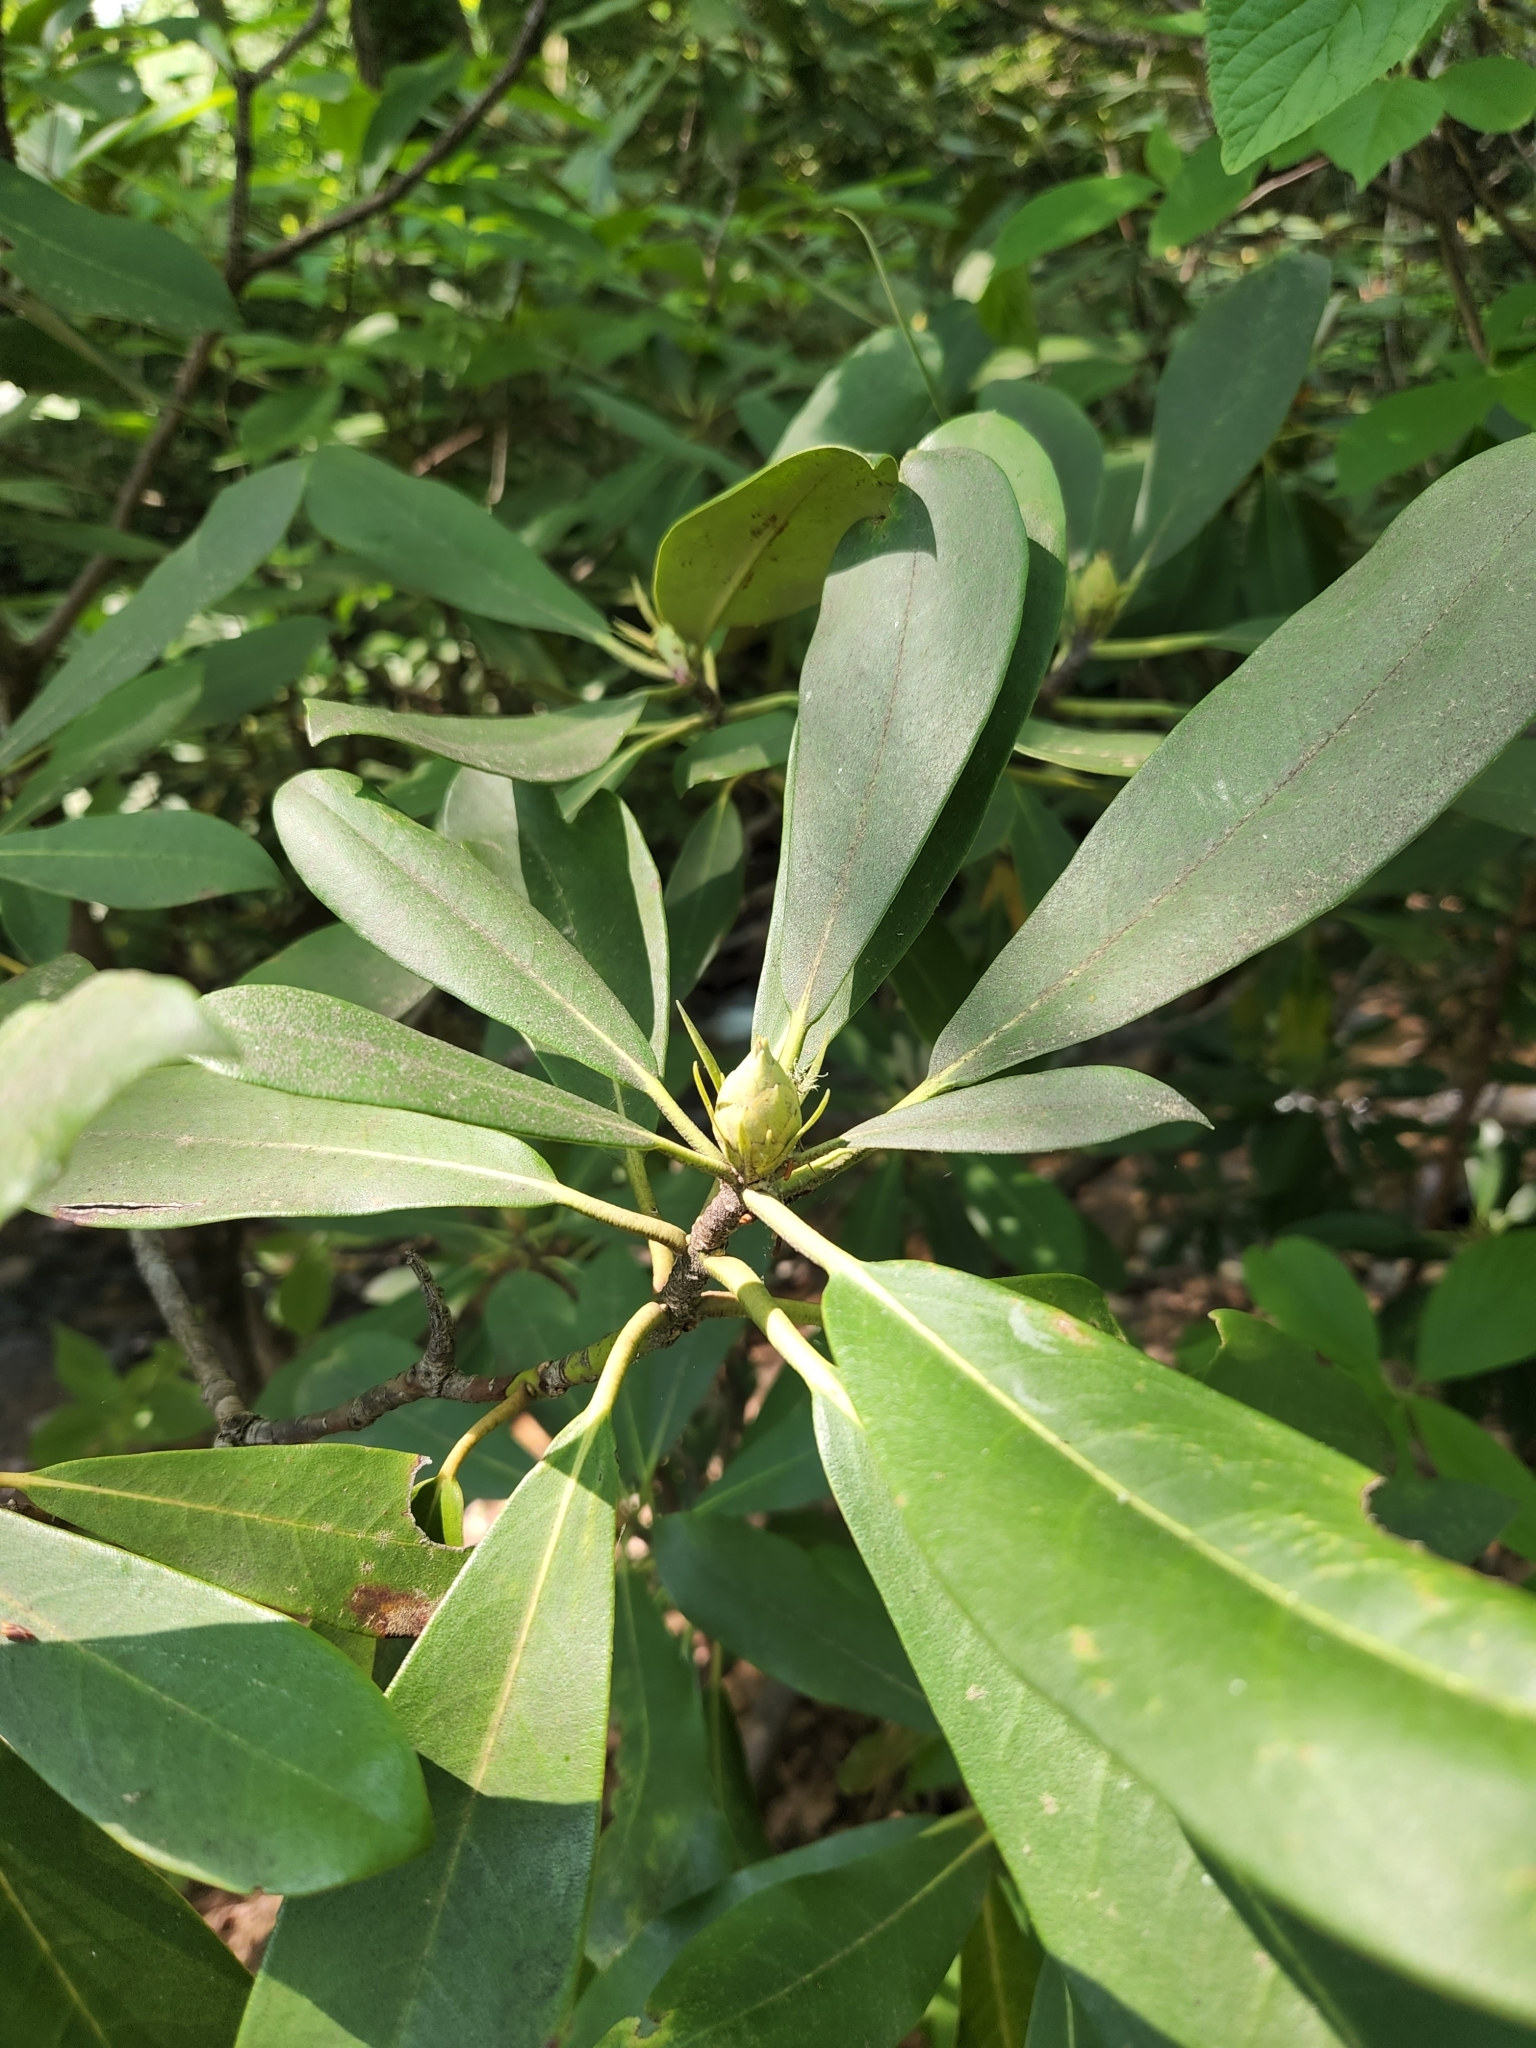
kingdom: Plantae
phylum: Tracheophyta
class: Magnoliopsida
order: Ericales
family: Ericaceae
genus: Rhododendron
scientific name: Rhododendron maximum
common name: Great rhododendron
